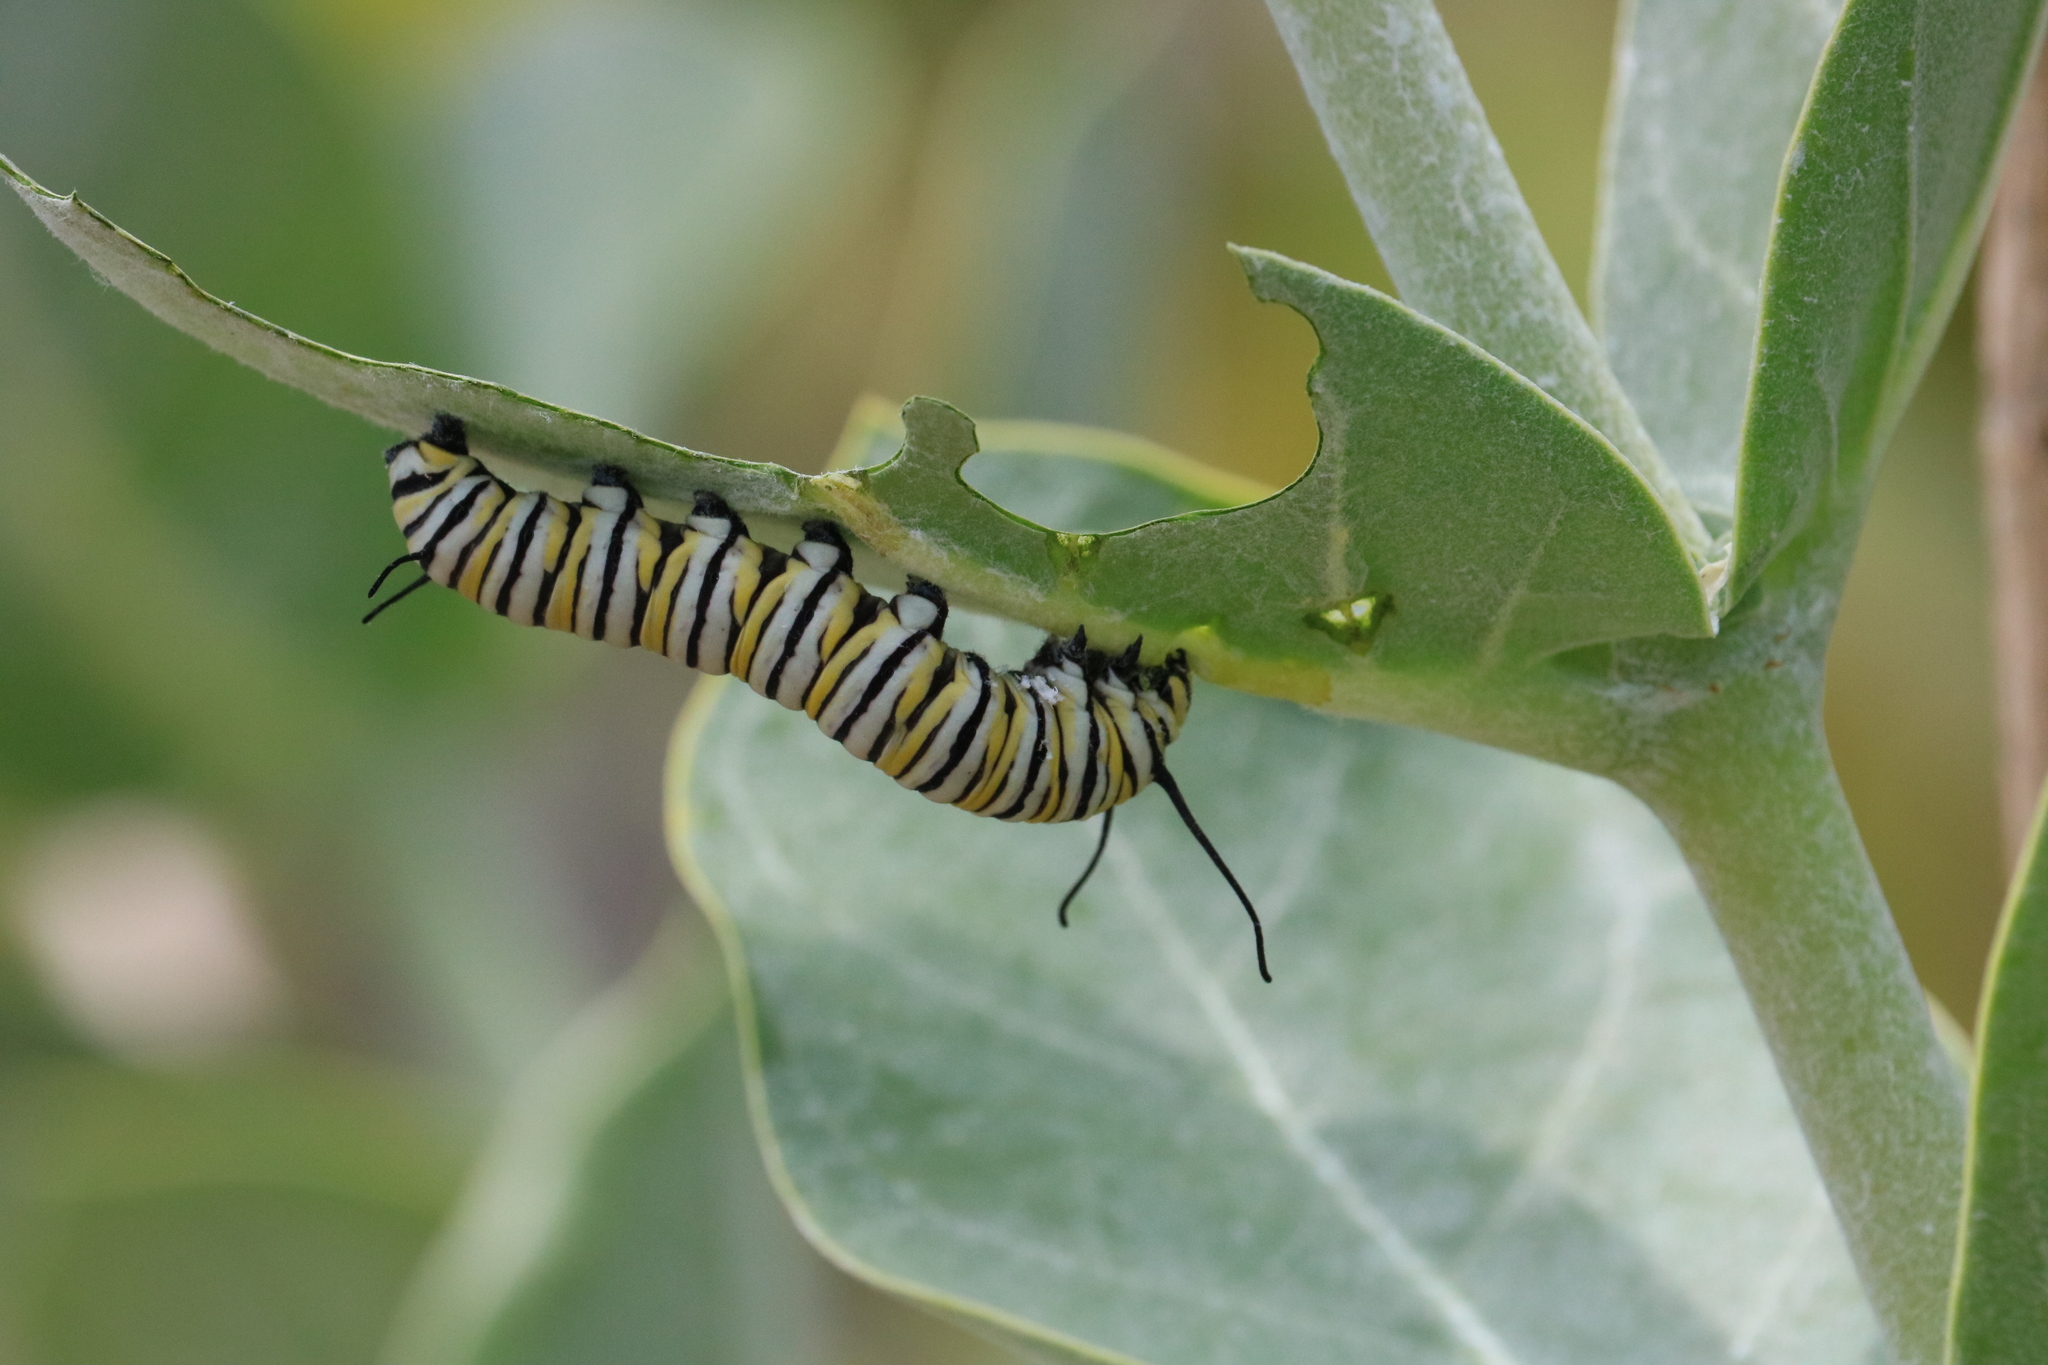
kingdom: Animalia
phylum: Arthropoda
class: Insecta
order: Lepidoptera
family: Nymphalidae
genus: Danaus
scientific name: Danaus plexippus
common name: Monarch
